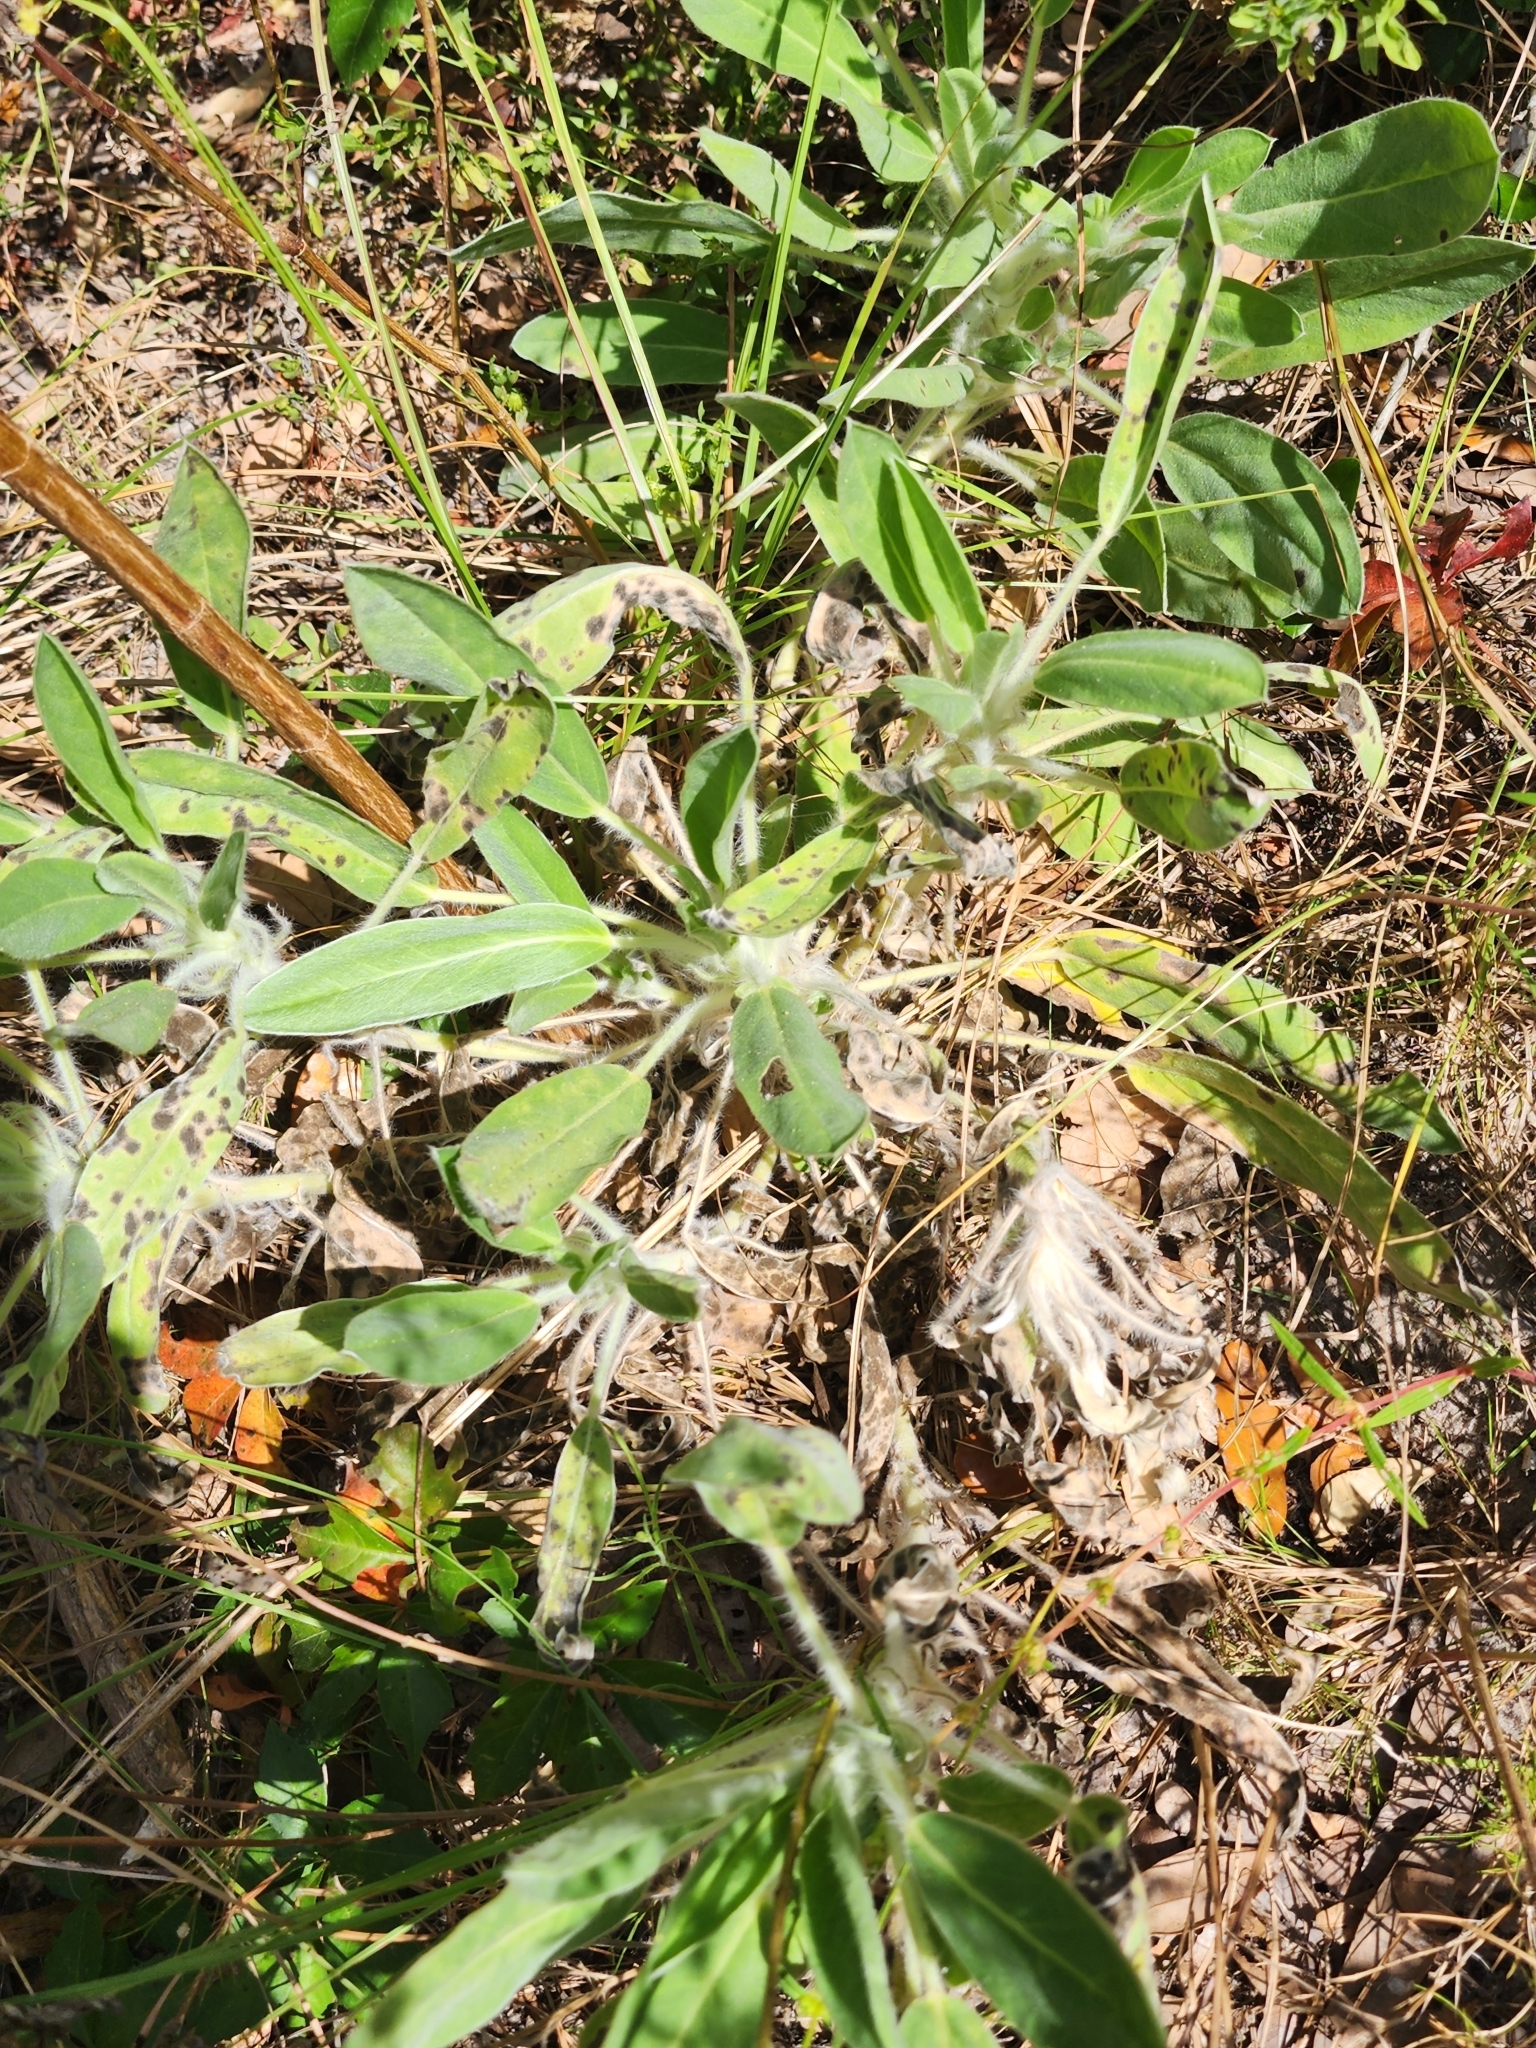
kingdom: Plantae
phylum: Tracheophyta
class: Magnoliopsida
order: Fabales
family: Fabaceae
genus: Lupinus
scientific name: Lupinus villosus
